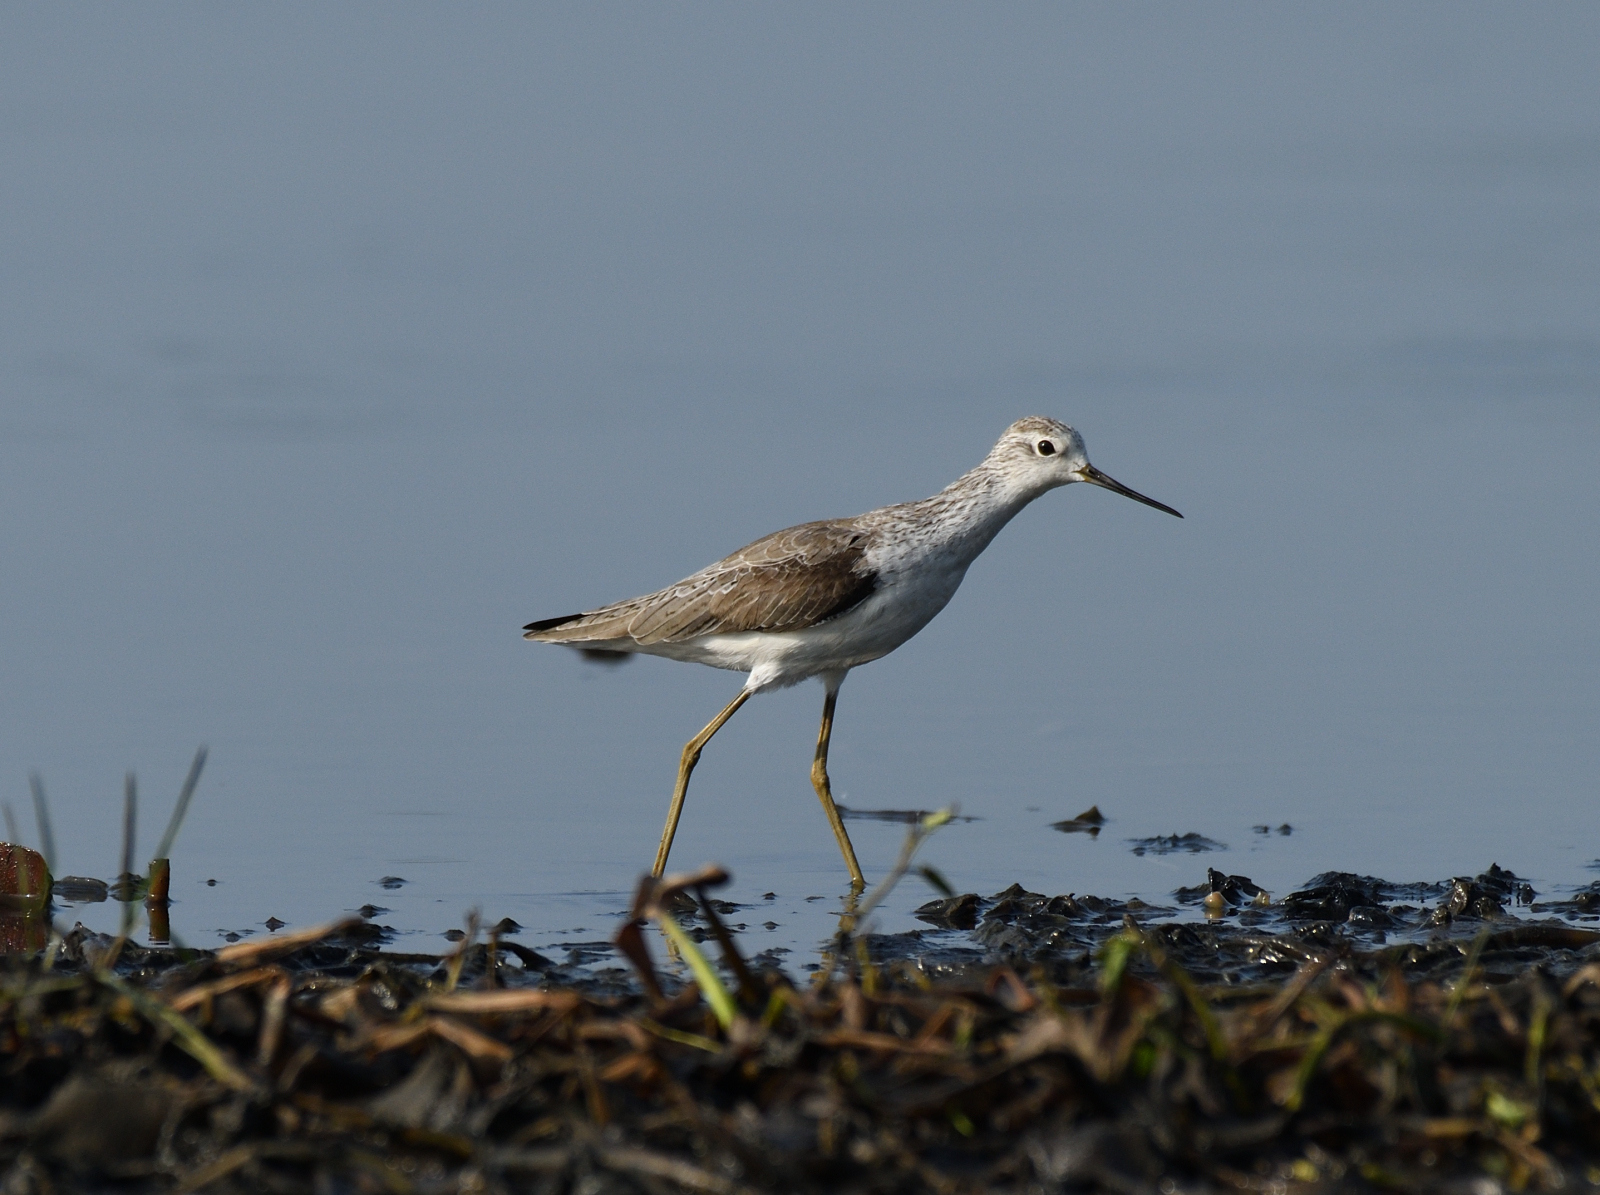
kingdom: Animalia
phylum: Chordata
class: Aves
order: Charadriiformes
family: Scolopacidae
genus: Tringa
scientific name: Tringa stagnatilis
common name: Marsh sandpiper
